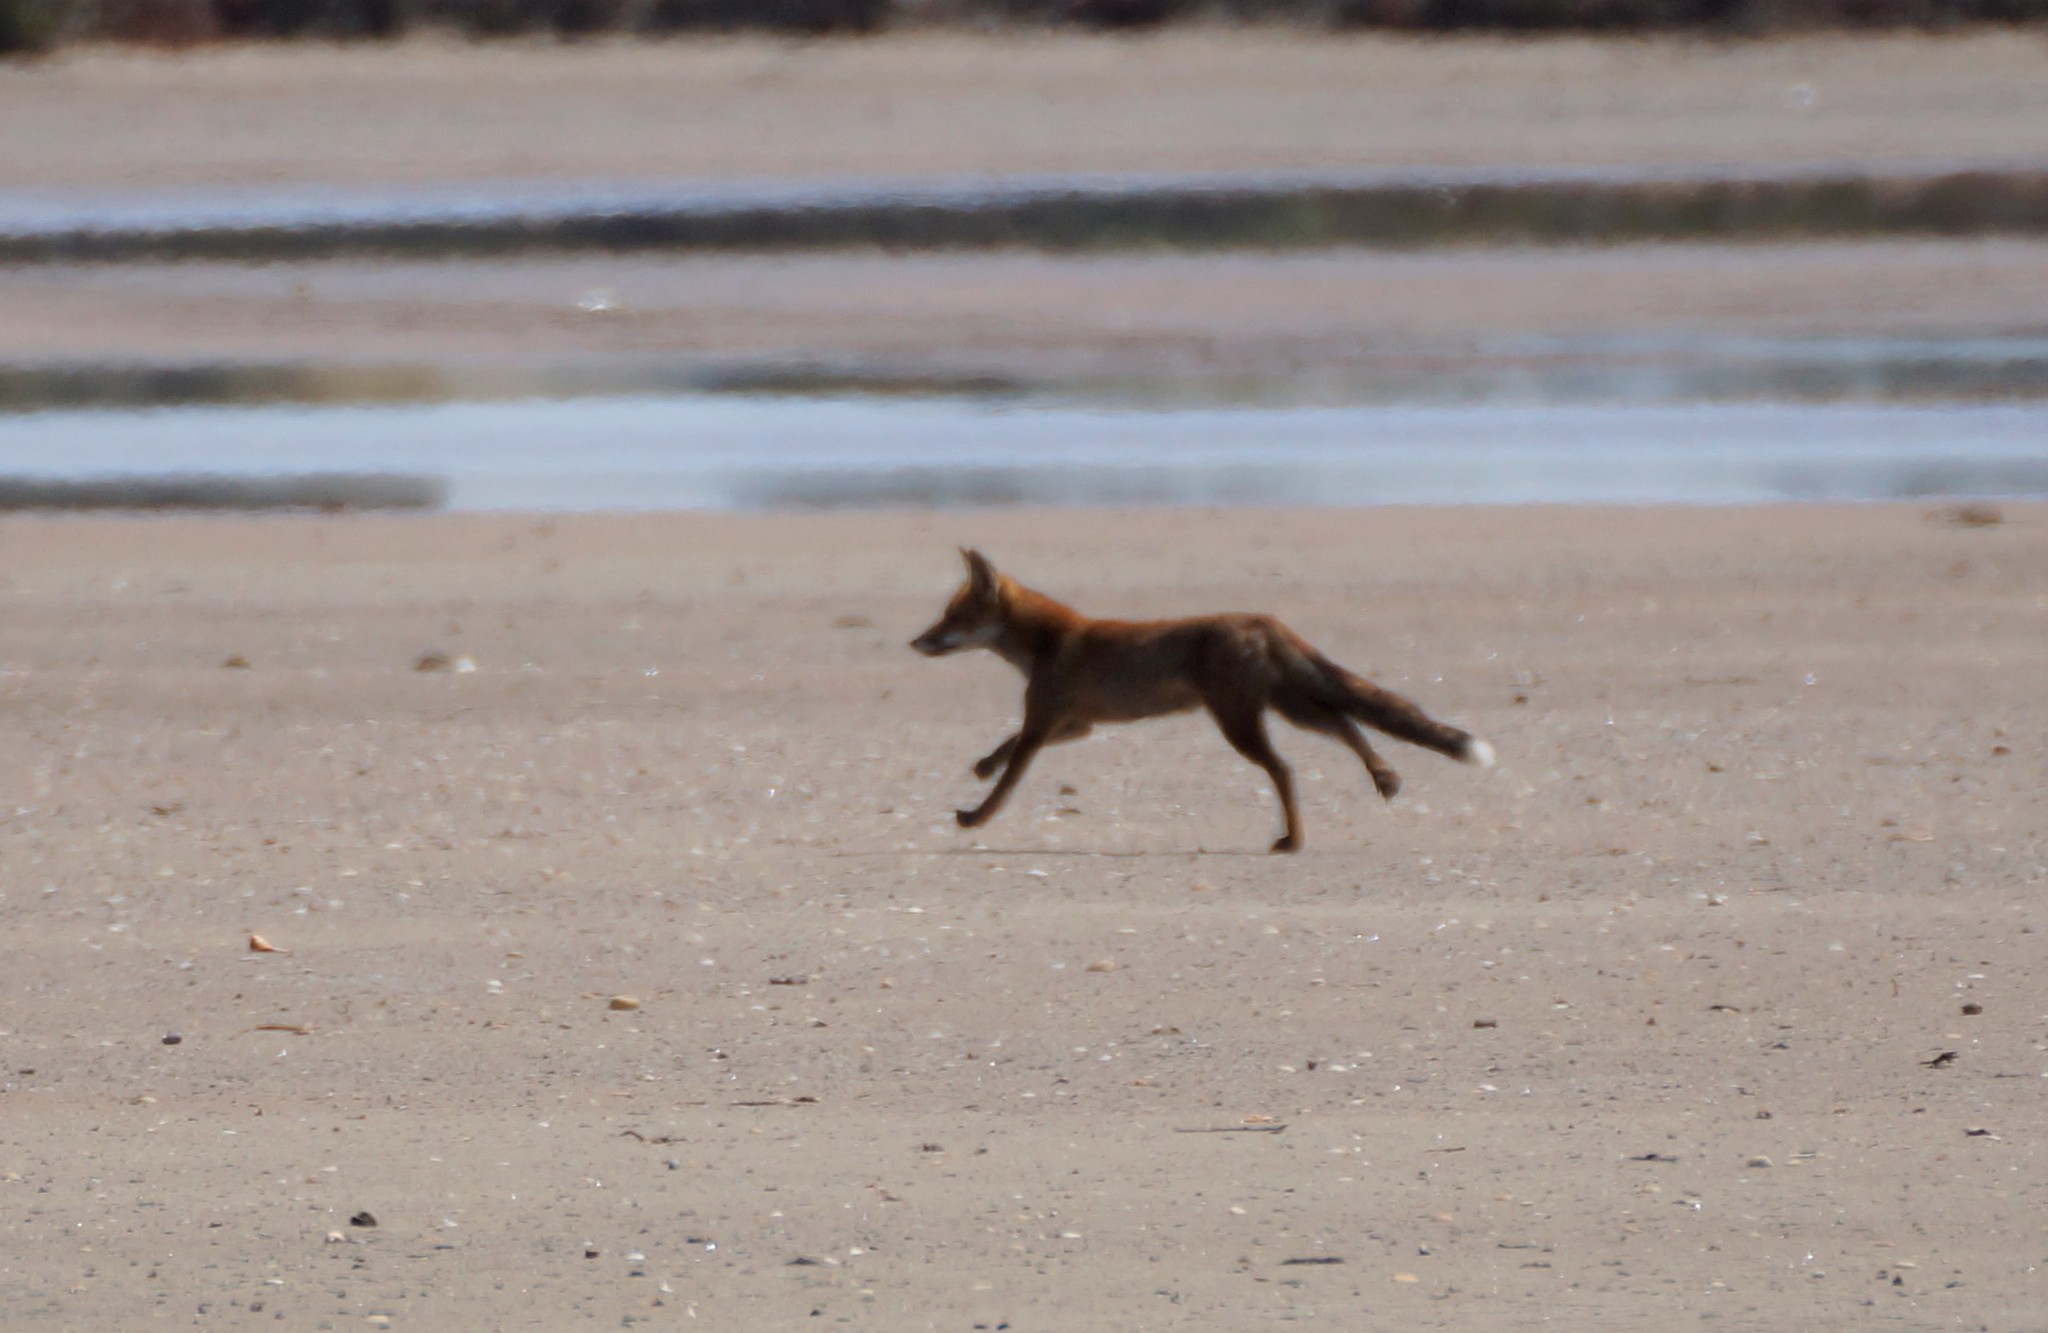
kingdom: Animalia
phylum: Chordata
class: Mammalia
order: Carnivora
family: Canidae
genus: Vulpes
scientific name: Vulpes vulpes
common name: Red fox
